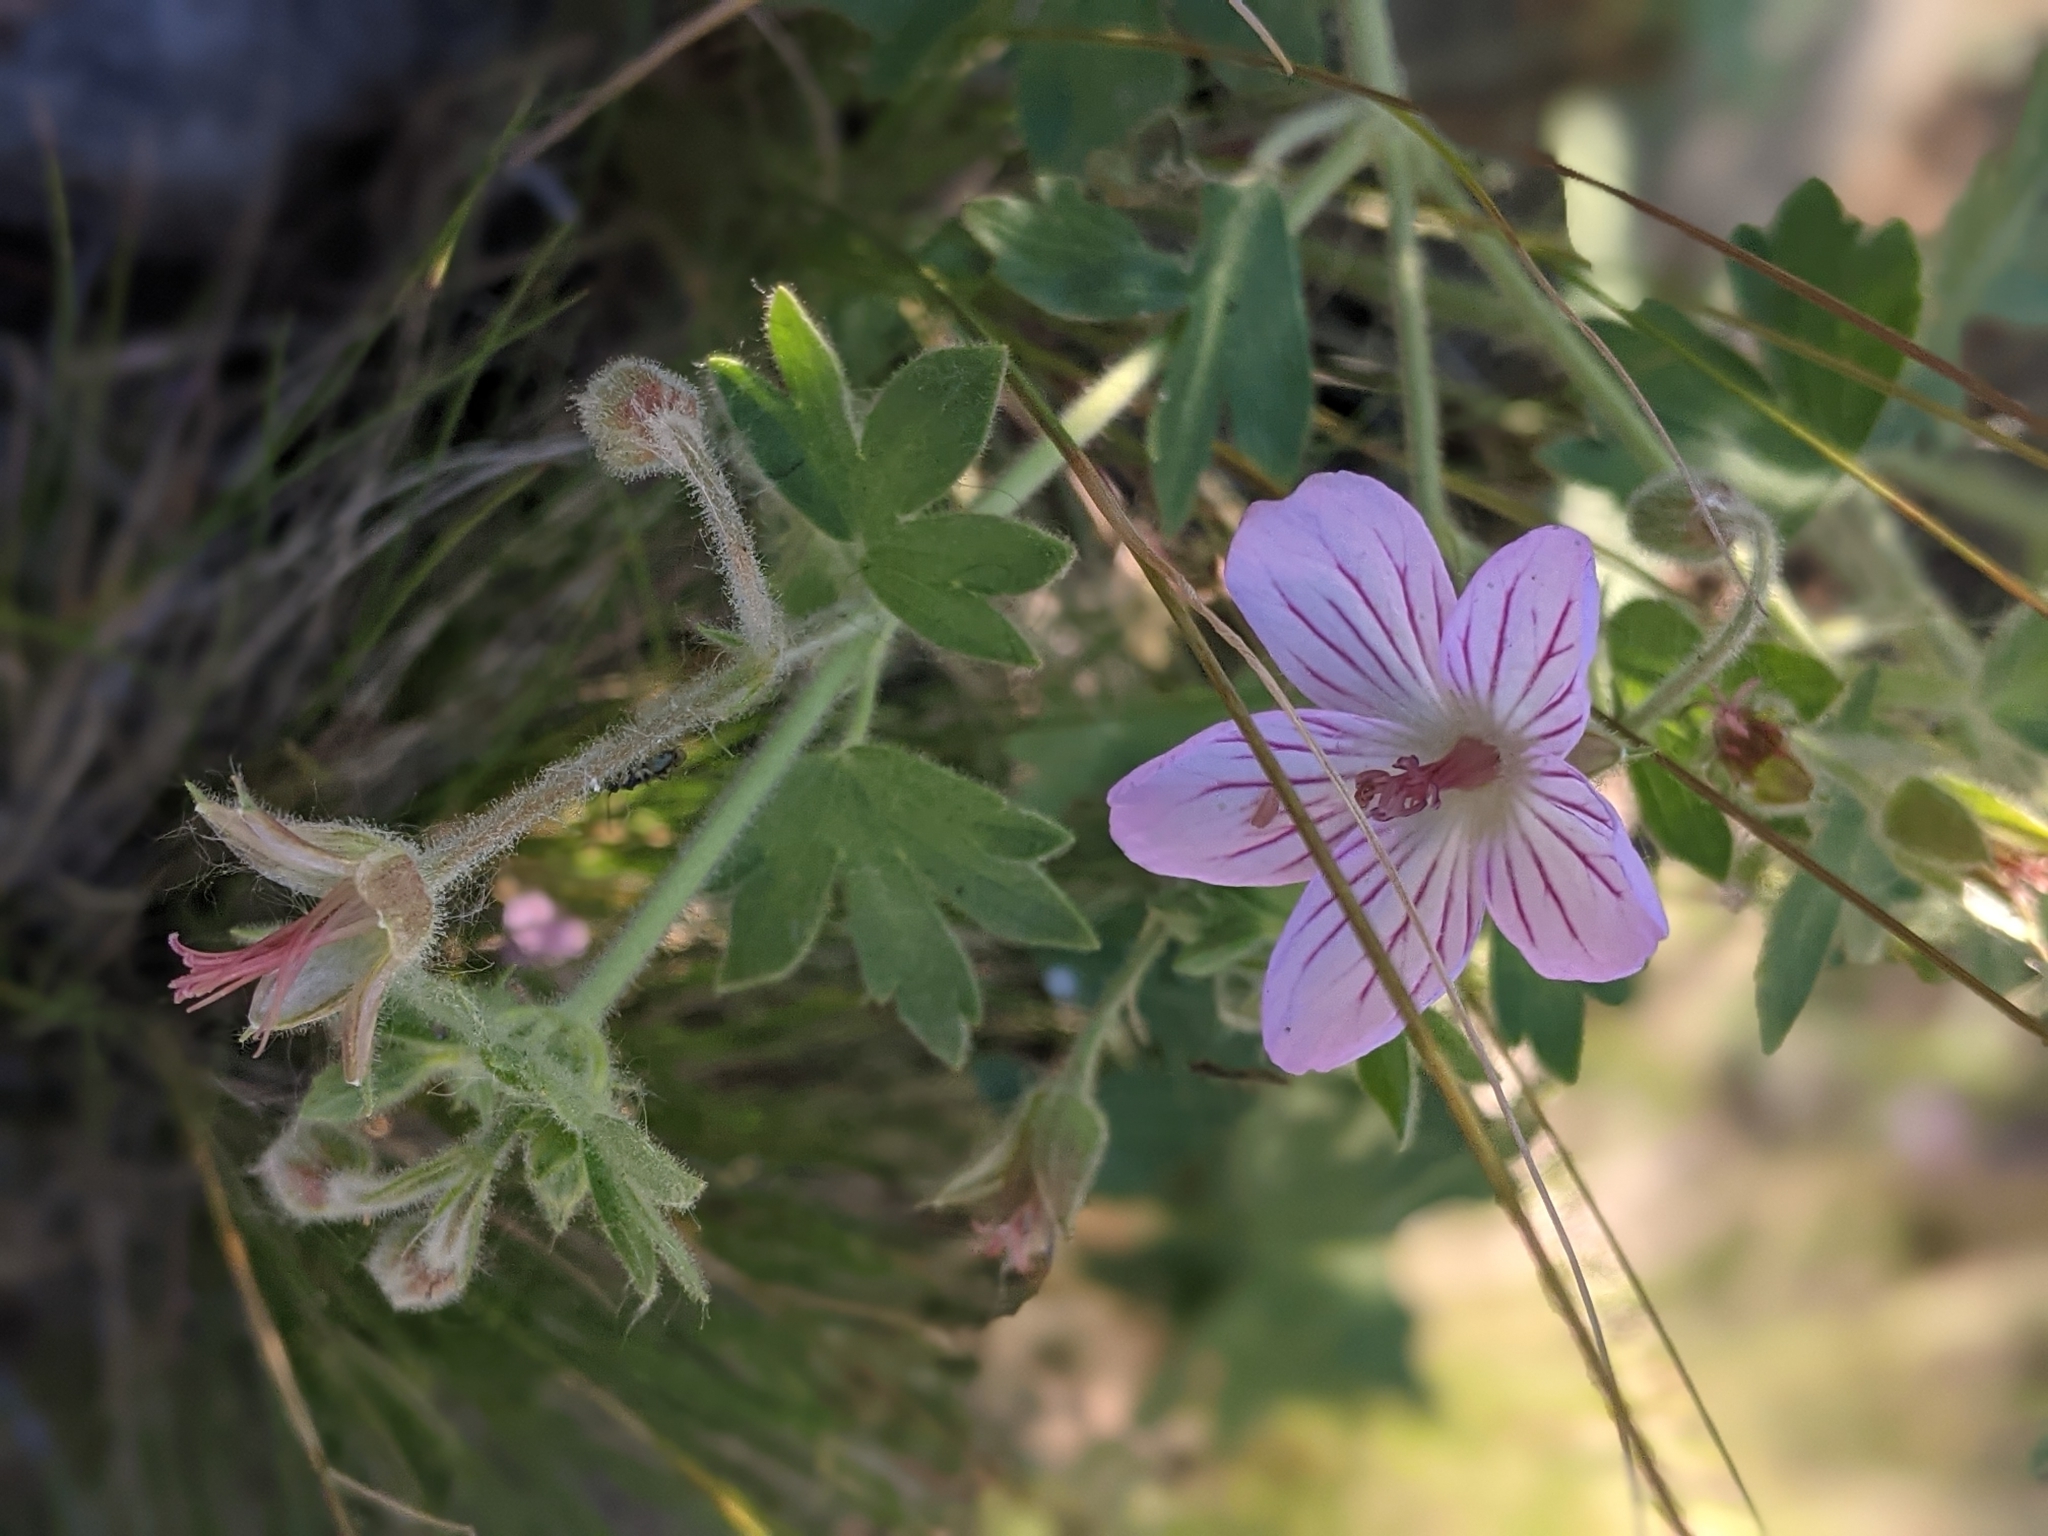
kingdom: Plantae
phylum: Tracheophyta
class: Magnoliopsida
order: Geraniales
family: Geraniaceae
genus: Geranium
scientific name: Geranium caespitosum
